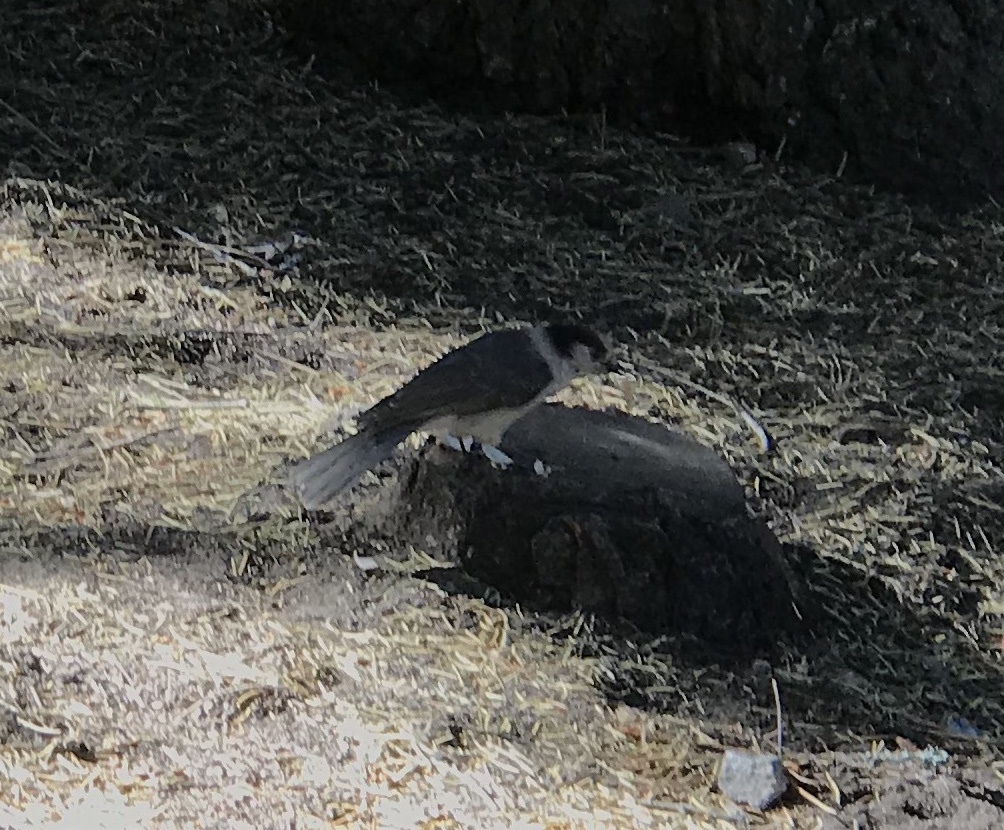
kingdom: Animalia
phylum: Chordata
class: Aves
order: Passeriformes
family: Corvidae
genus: Perisoreus
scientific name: Perisoreus canadensis
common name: Gray jay
